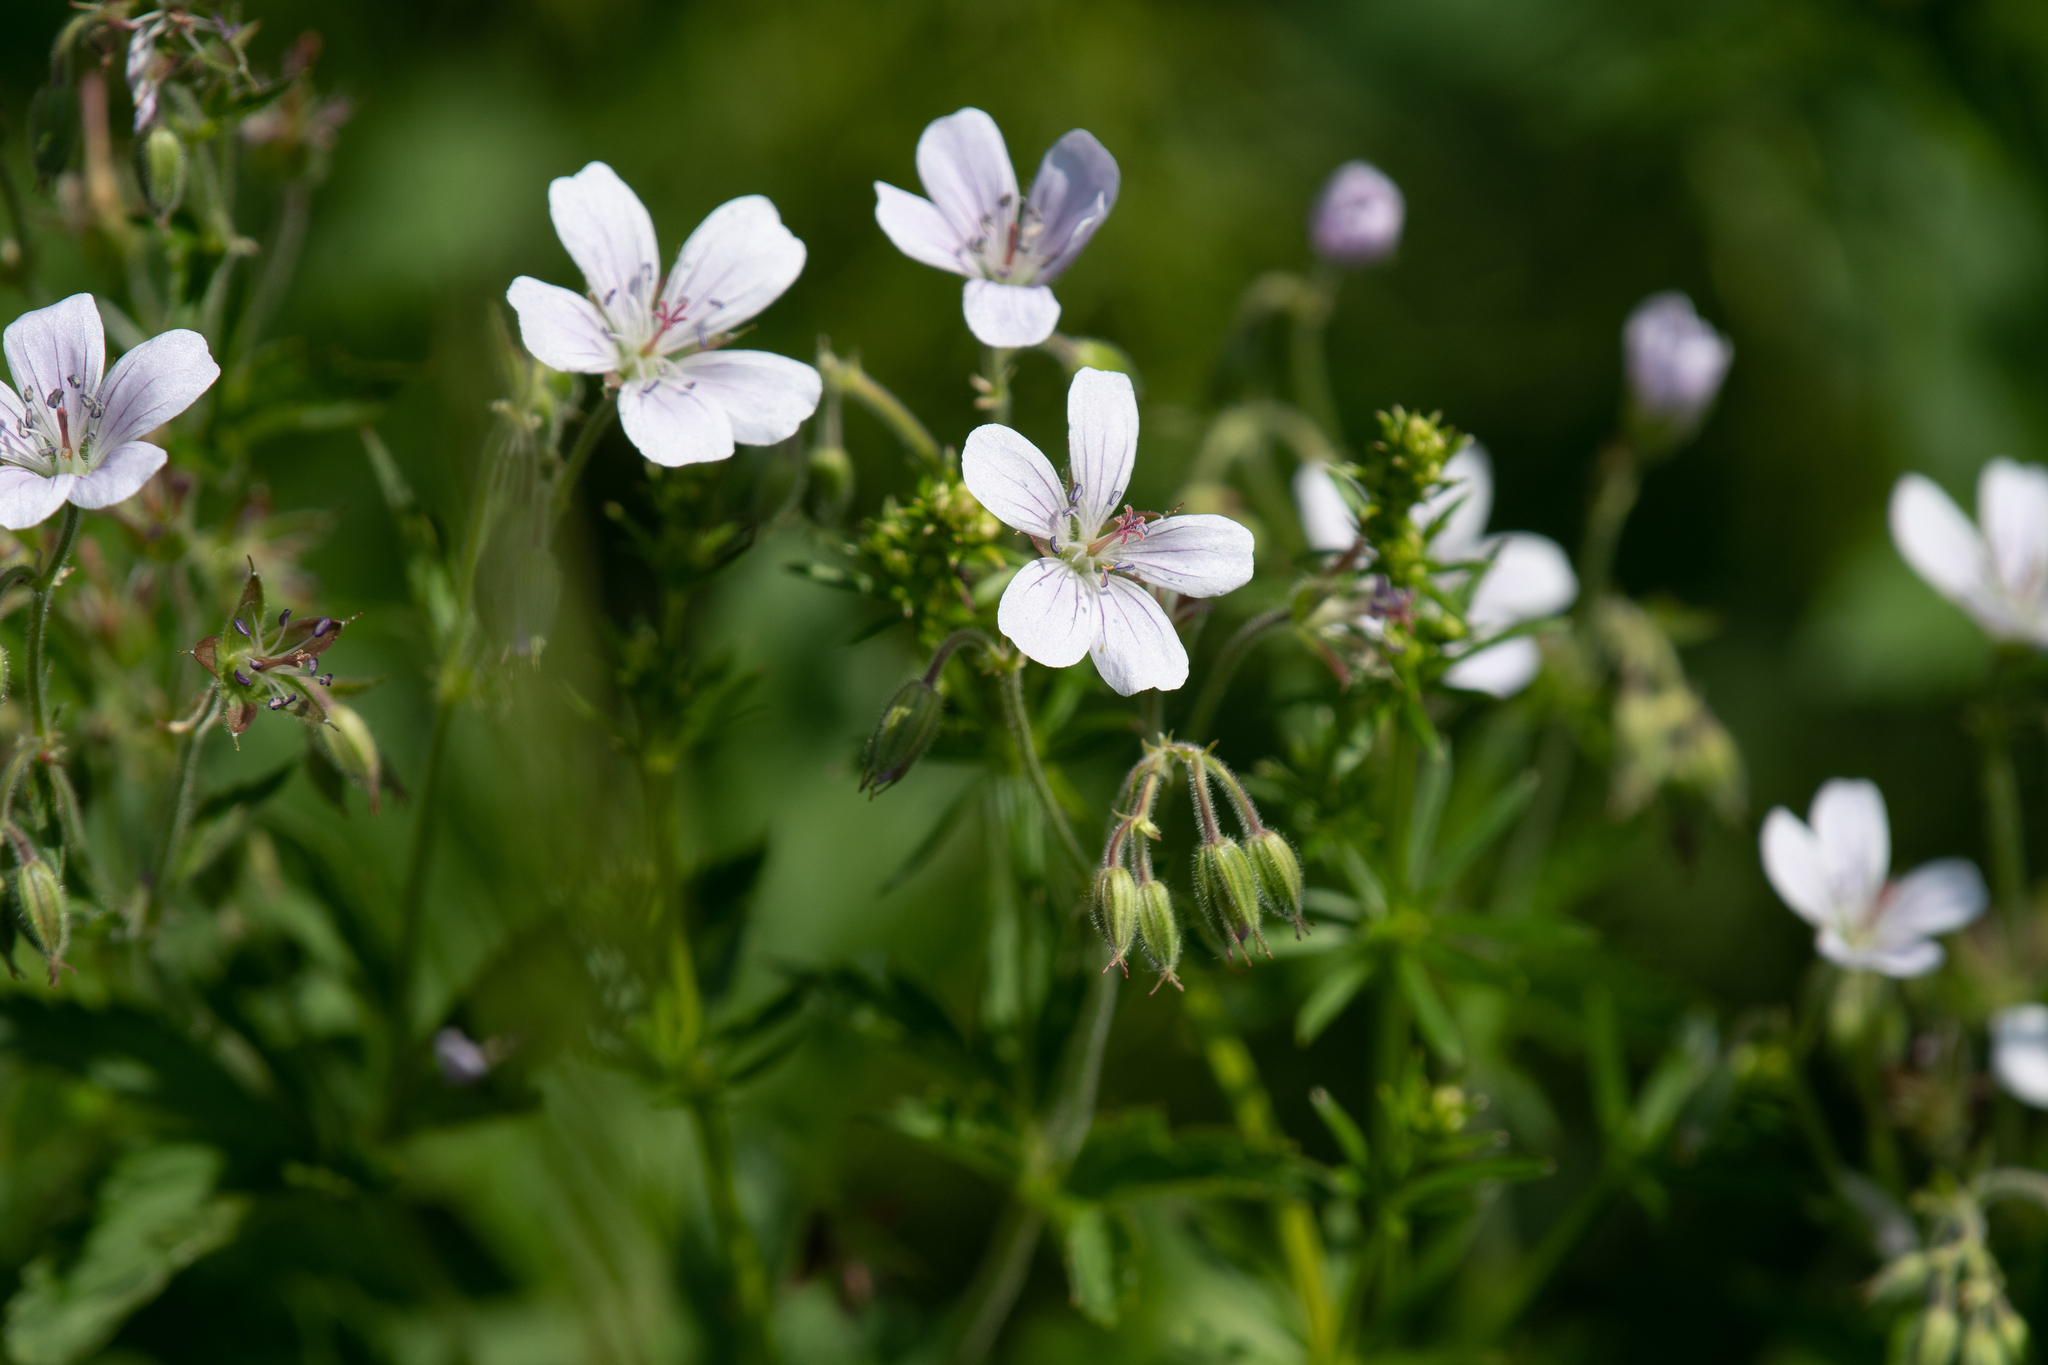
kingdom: Plantae
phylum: Tracheophyta
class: Magnoliopsida
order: Geraniales
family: Geraniaceae
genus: Geranium
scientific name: Geranium sylvaticum
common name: Wood crane's-bill
